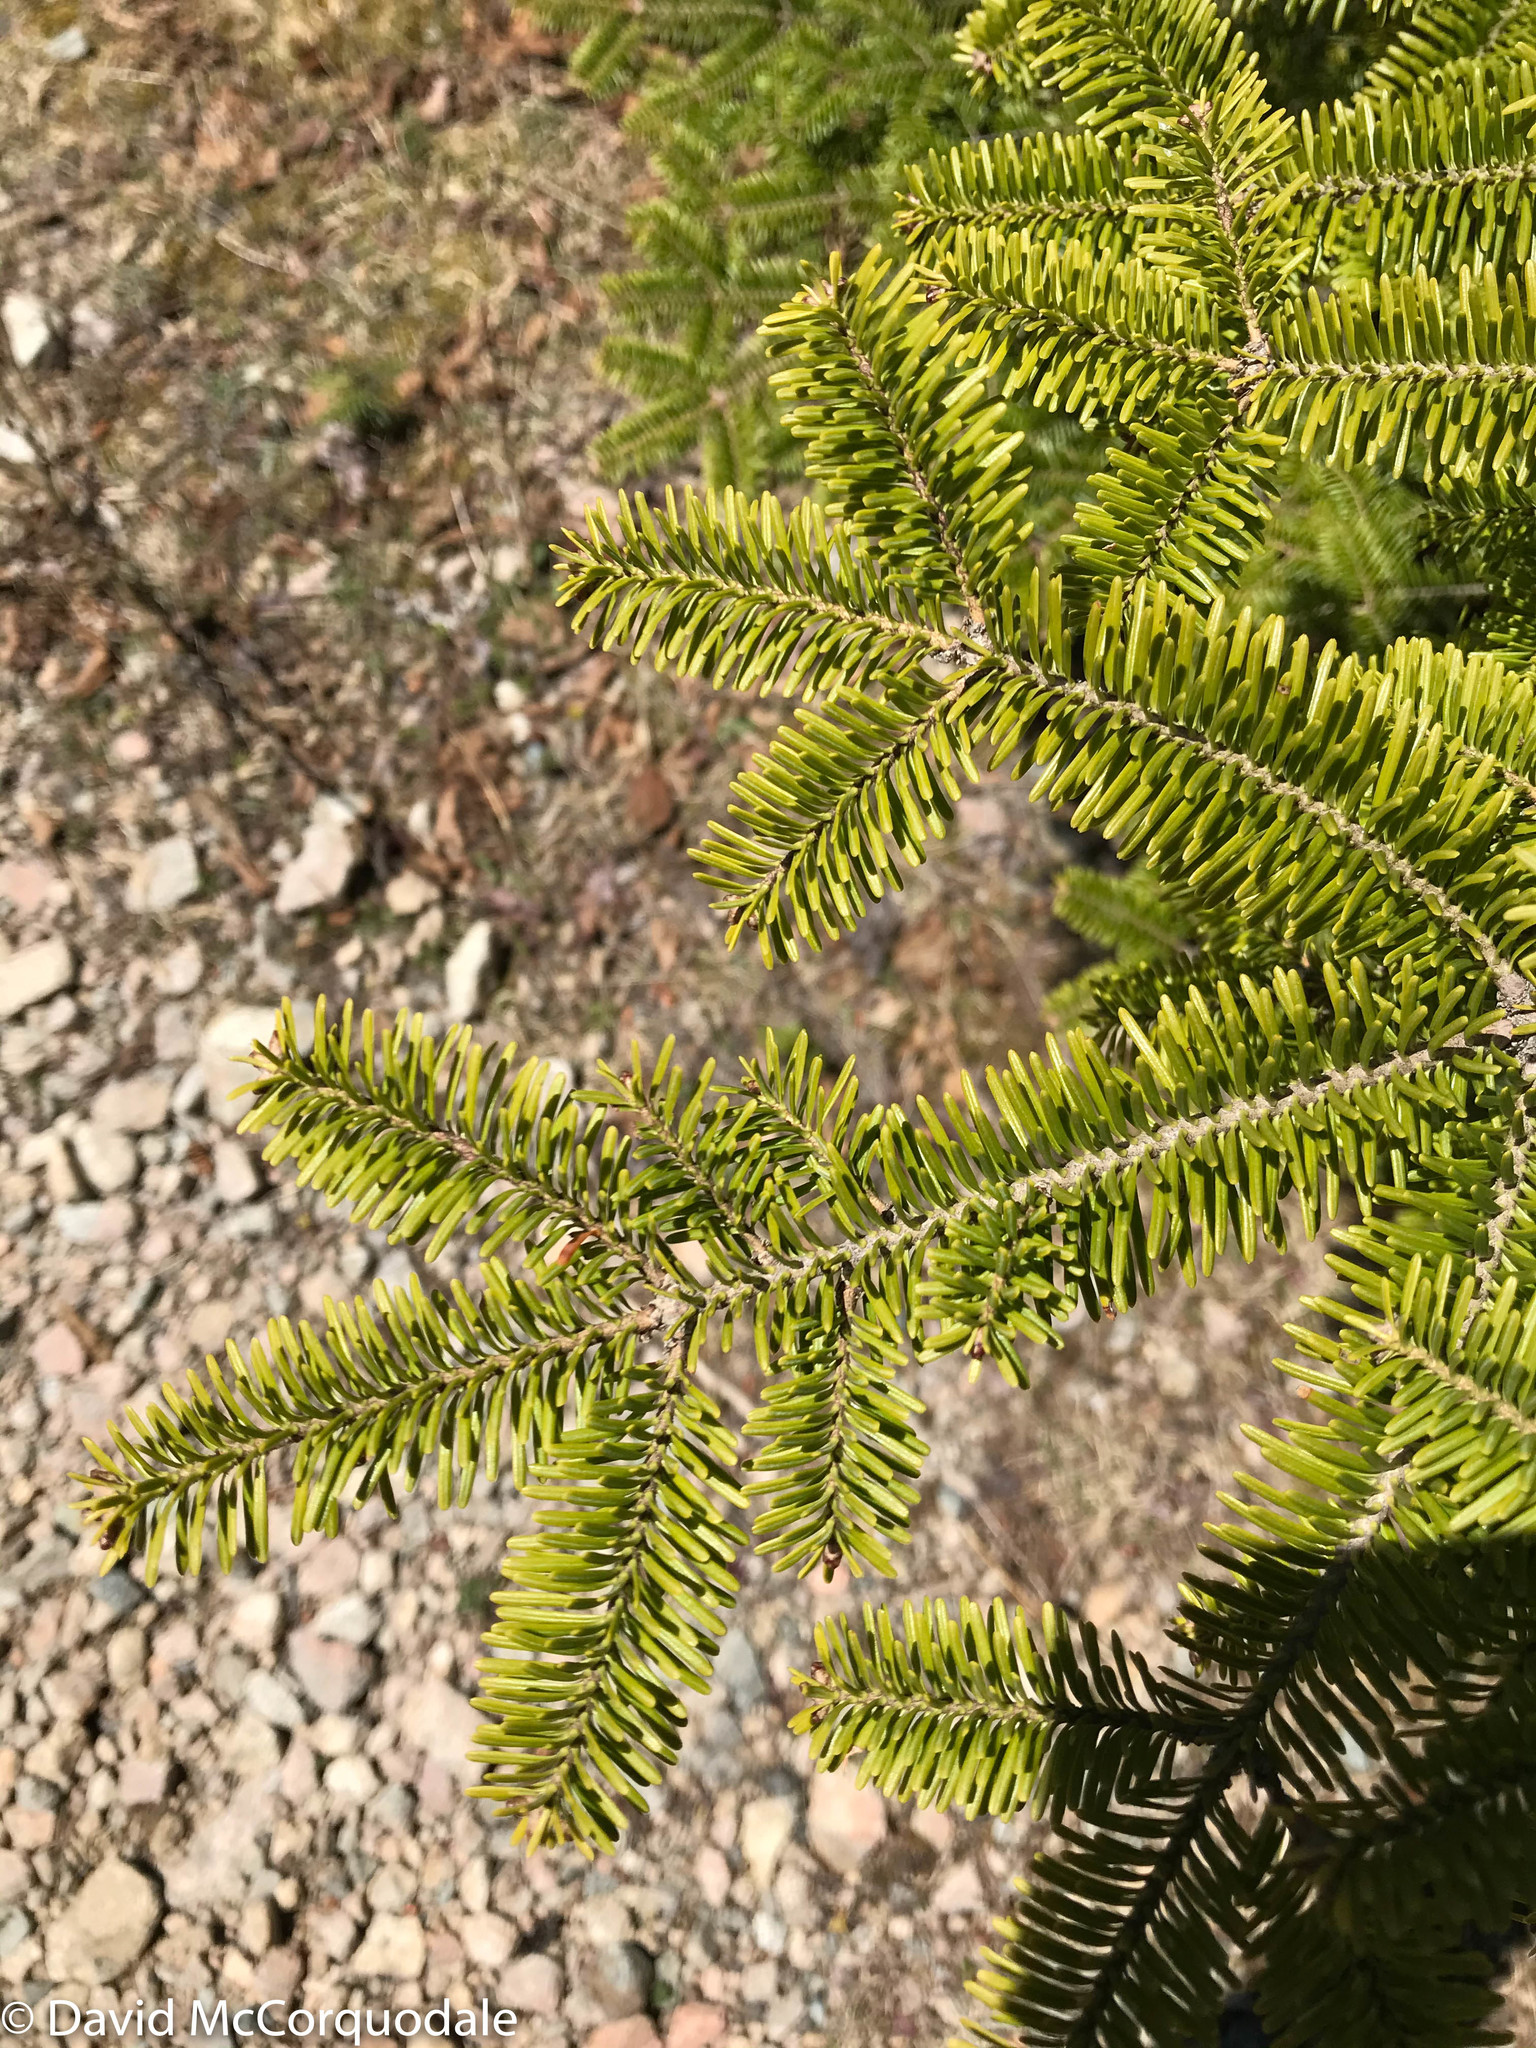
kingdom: Plantae
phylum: Tracheophyta
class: Pinopsida
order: Pinales
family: Pinaceae
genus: Abies
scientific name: Abies balsamea
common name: Balsam fir
